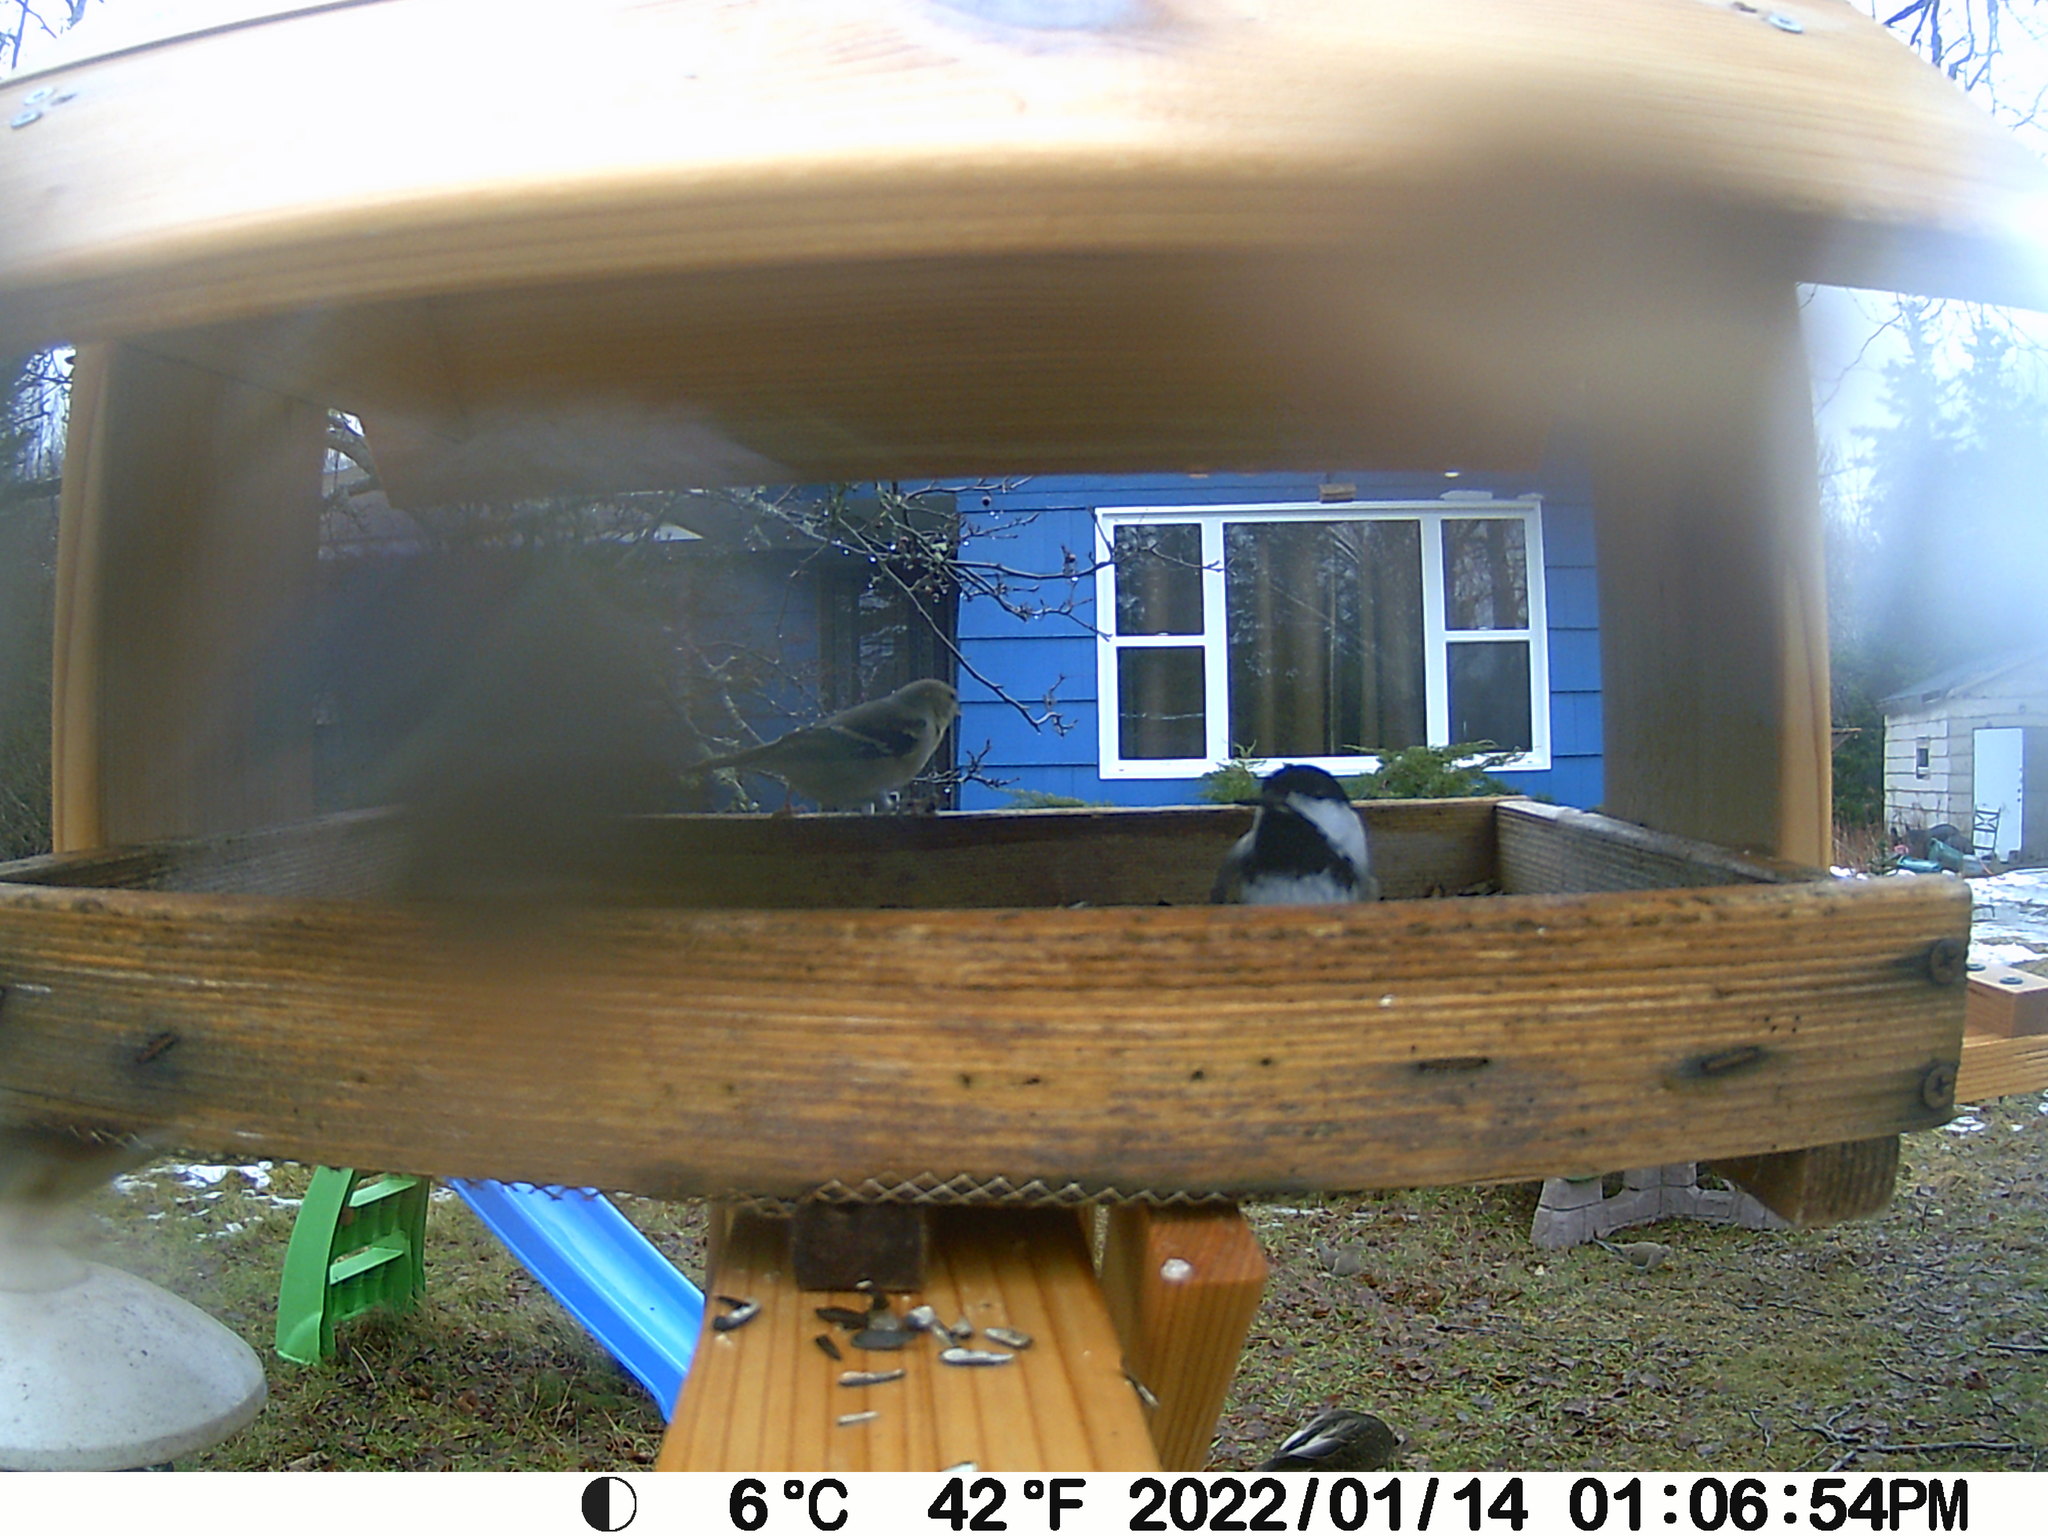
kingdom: Animalia
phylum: Chordata
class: Aves
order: Columbiformes
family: Columbidae
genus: Zenaida
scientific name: Zenaida macroura
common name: Mourning dove
